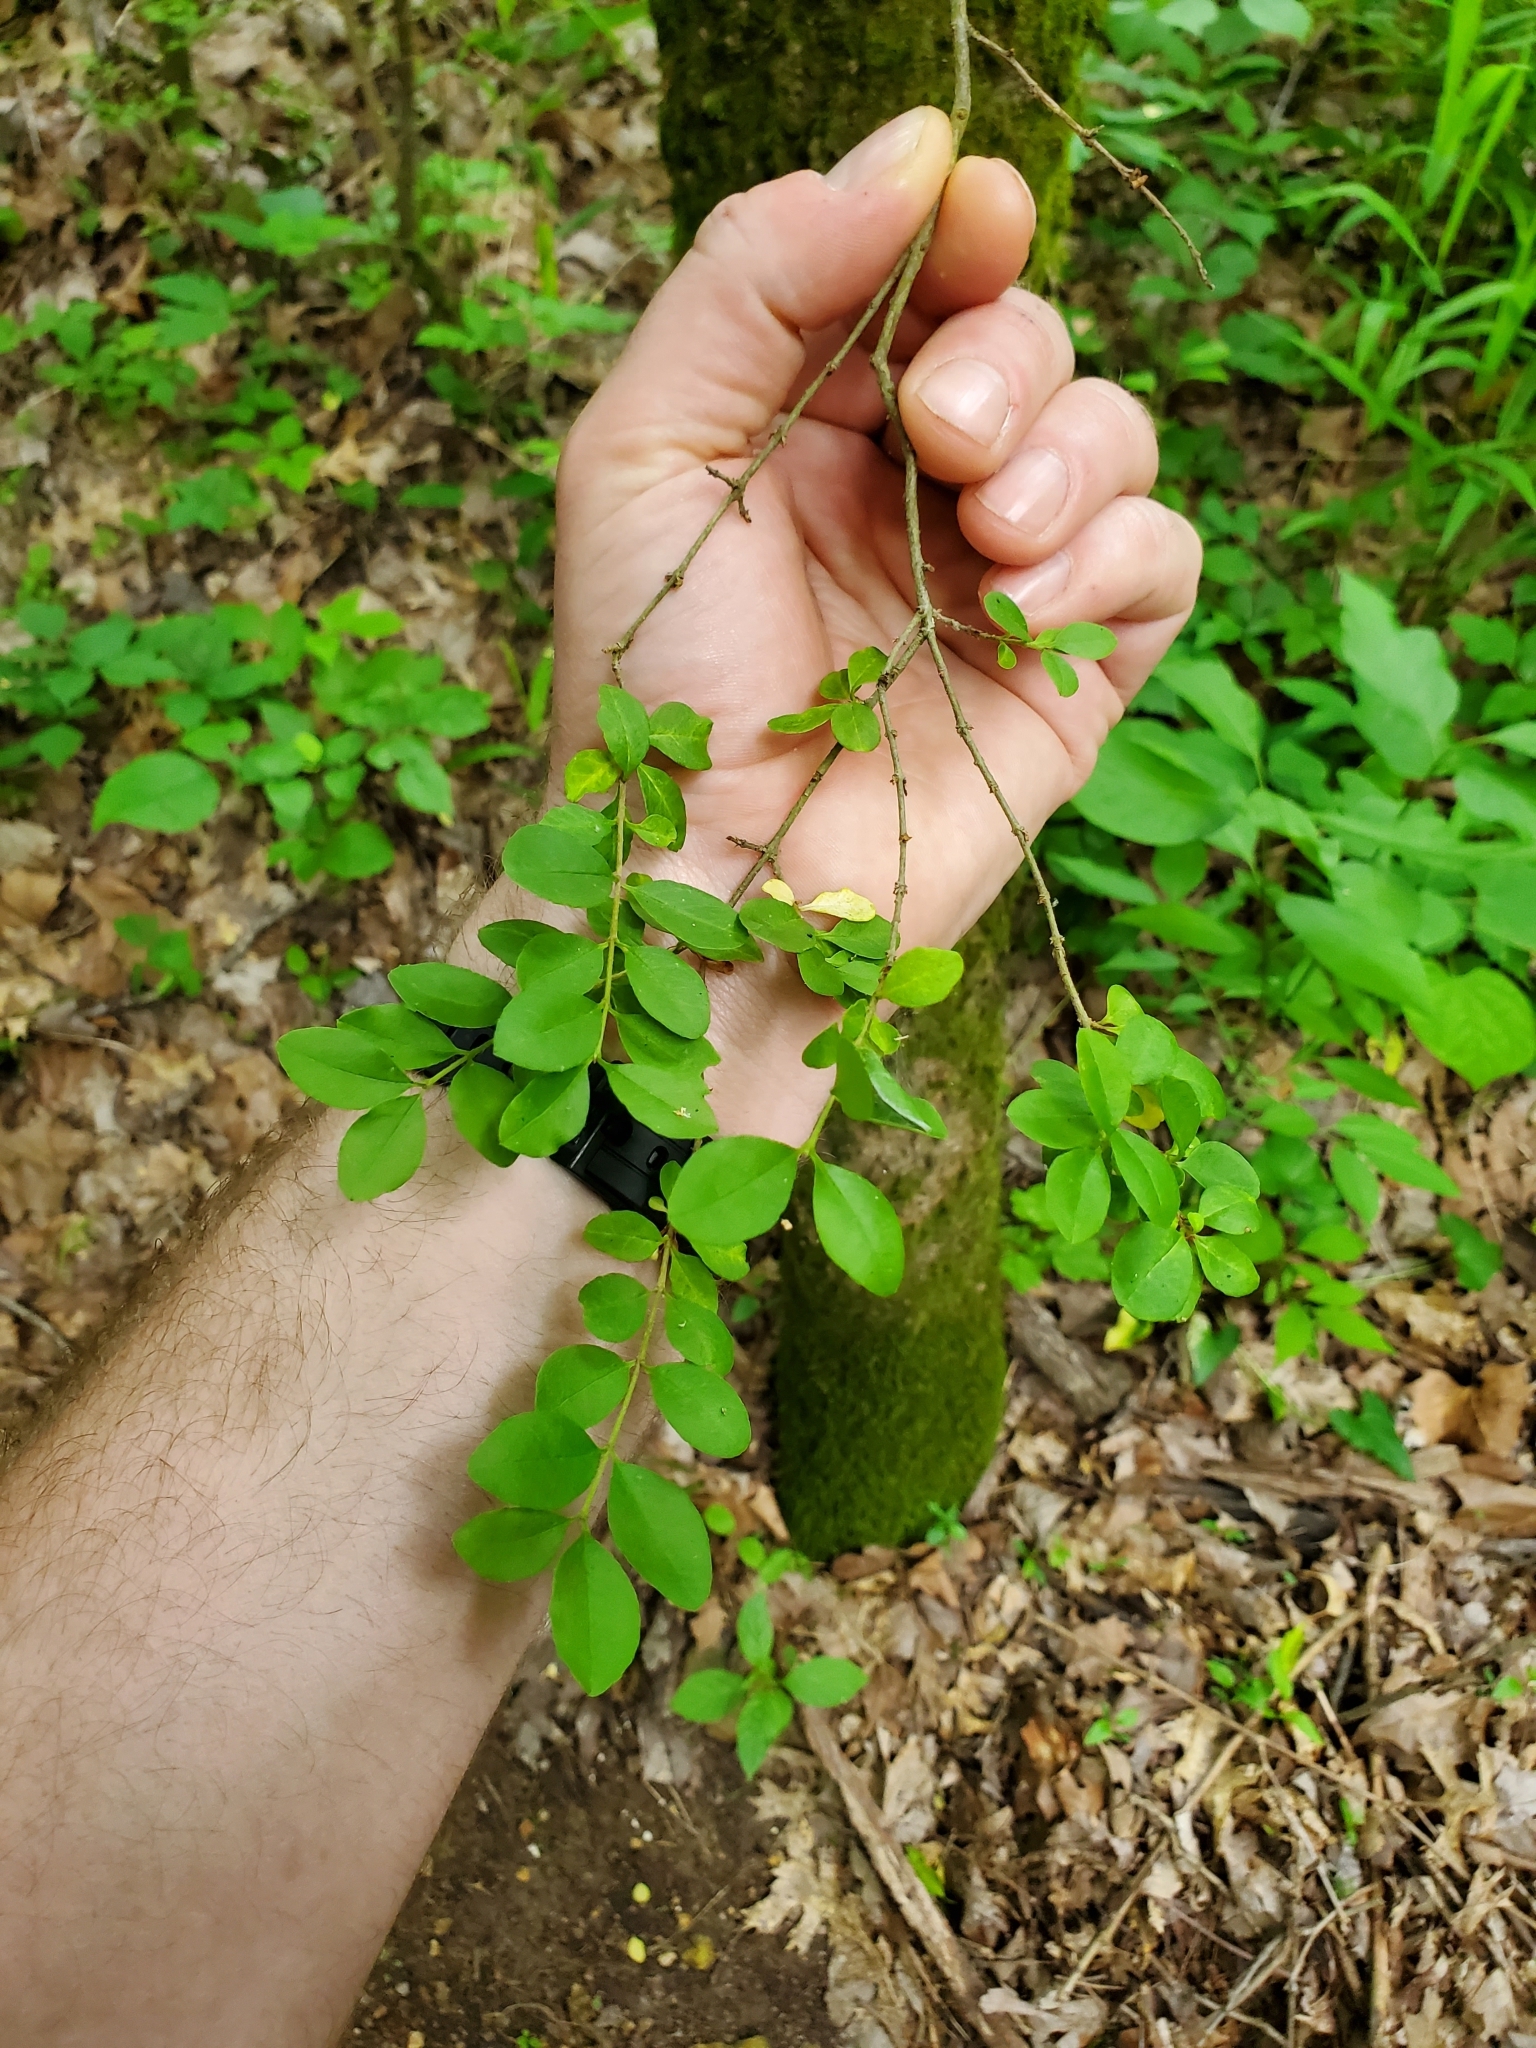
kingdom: Plantae
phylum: Tracheophyta
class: Magnoliopsida
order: Lamiales
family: Oleaceae
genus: Ligustrum
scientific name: Ligustrum sinense
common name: Chinese privet
